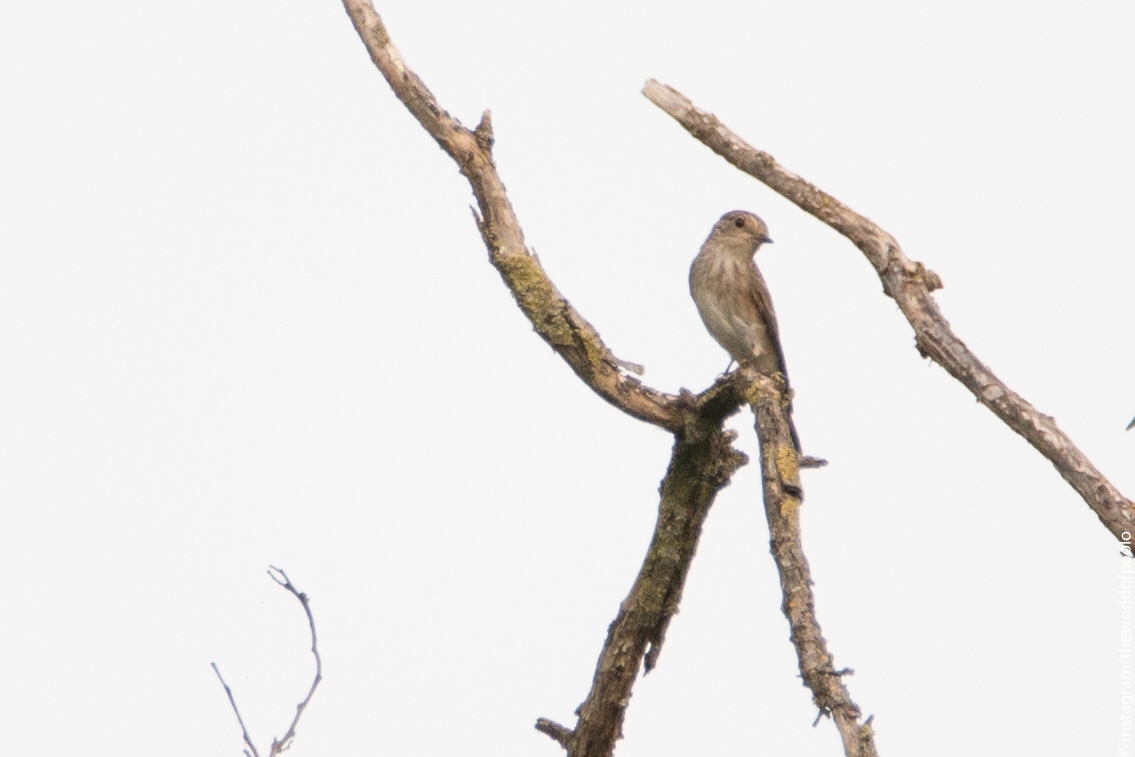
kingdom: Animalia
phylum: Chordata
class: Aves
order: Passeriformes
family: Muscicapidae
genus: Muscicapa
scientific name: Muscicapa striata
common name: Spotted flycatcher
